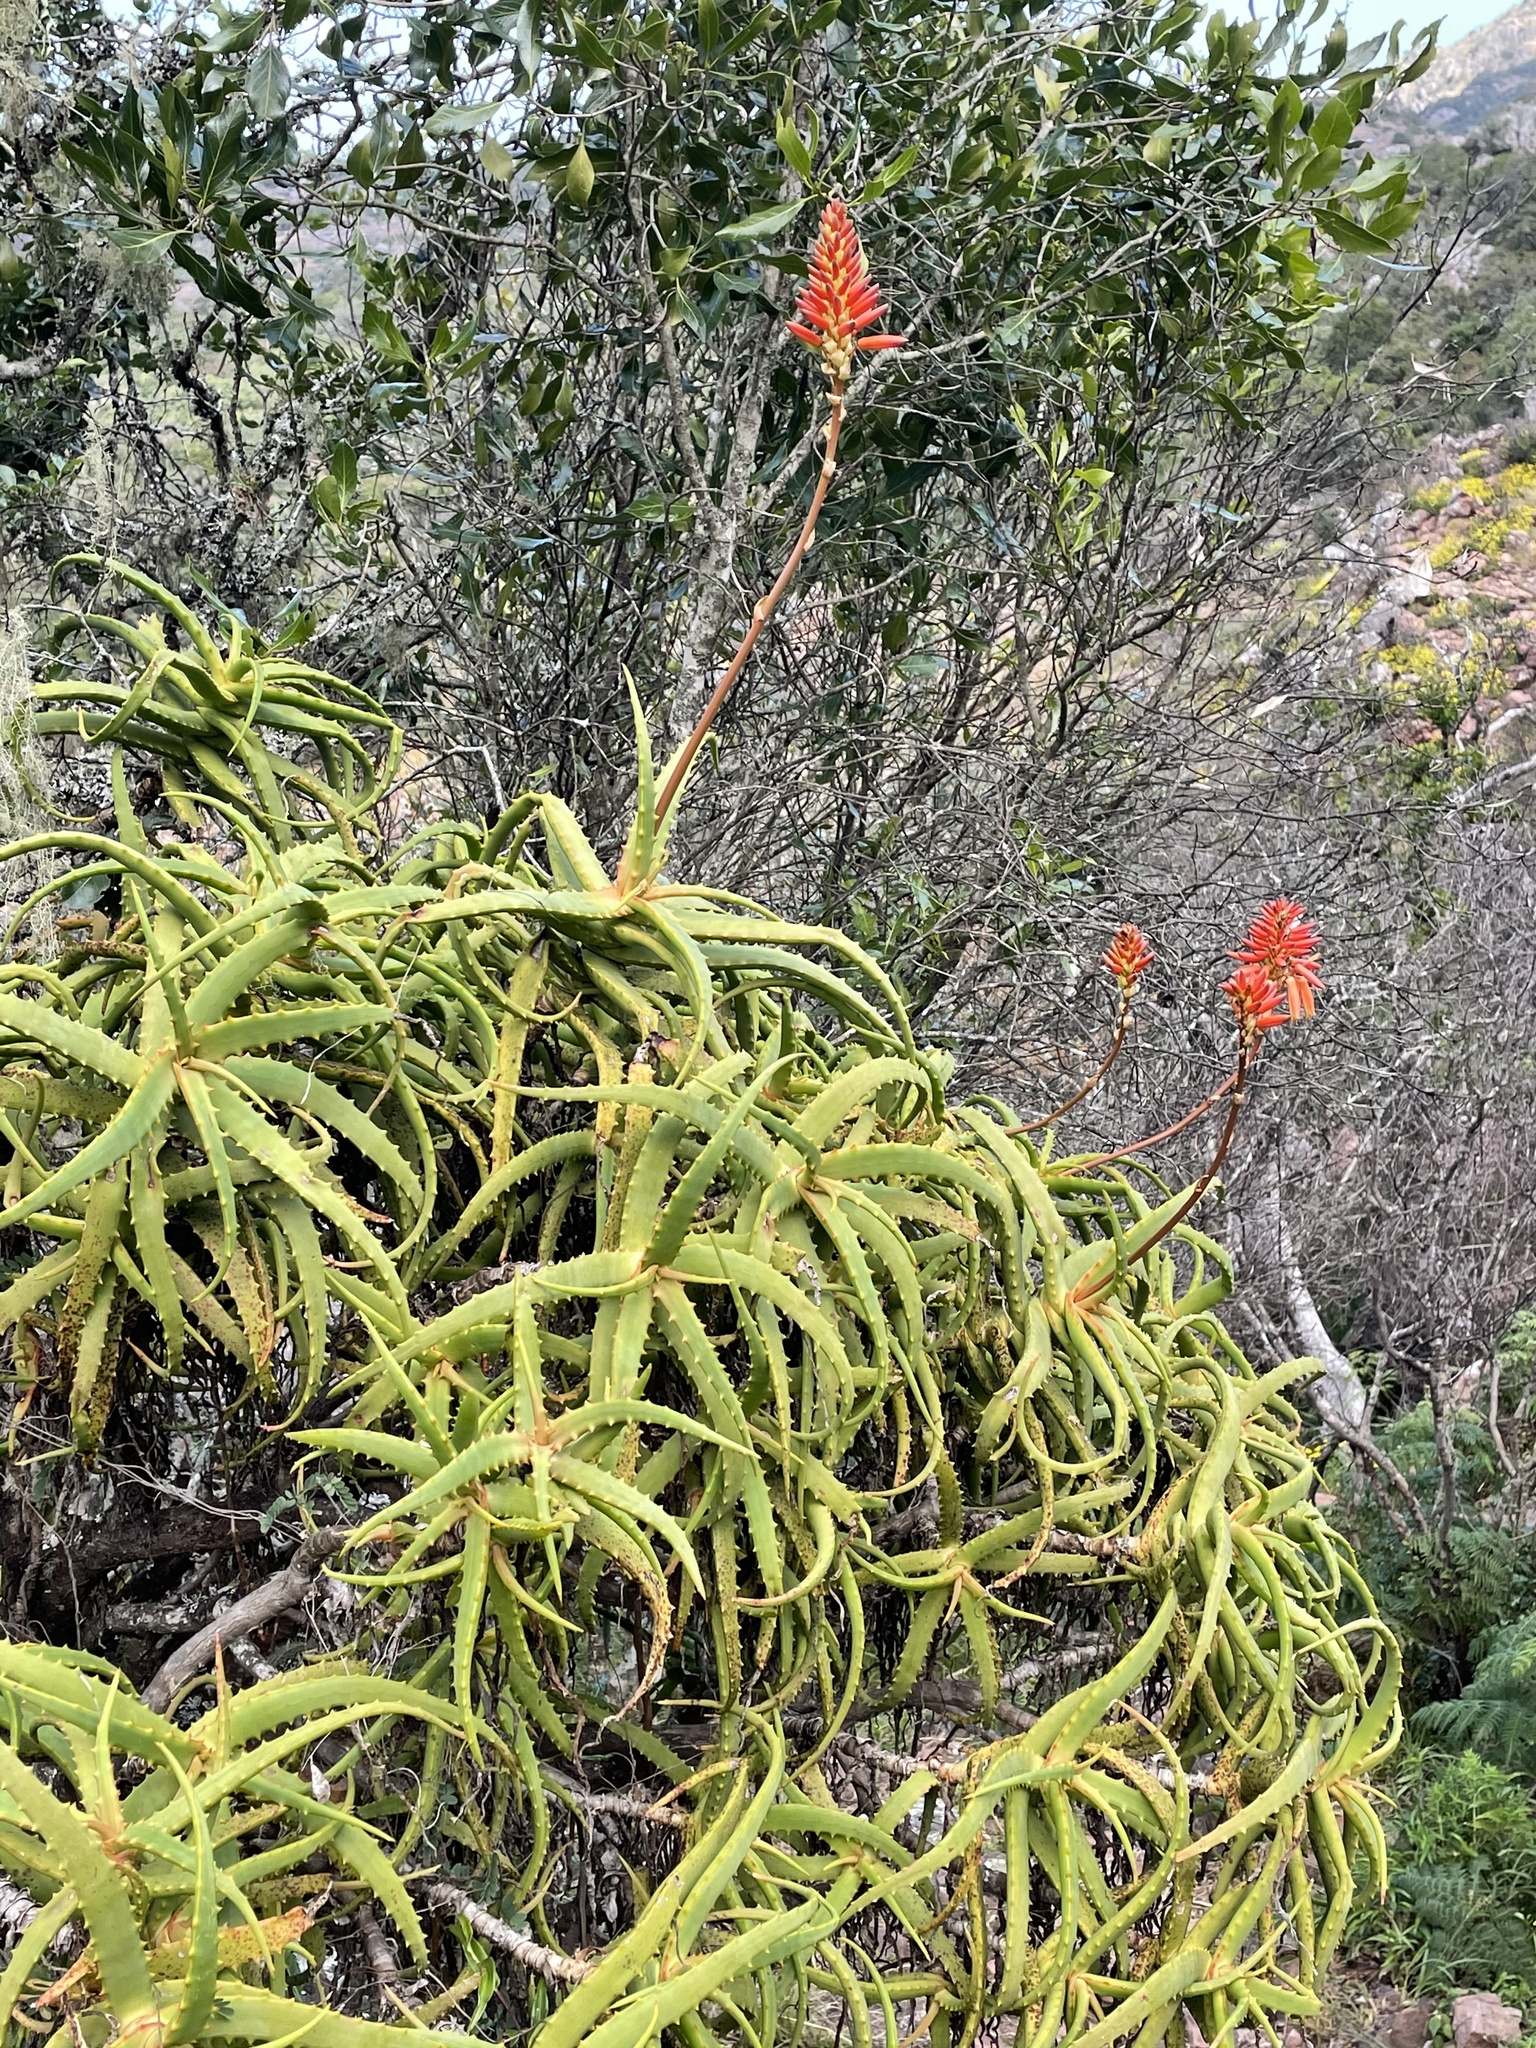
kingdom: Plantae
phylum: Tracheophyta
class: Liliopsida
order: Asparagales
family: Asphodelaceae
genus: Aloe
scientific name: Aloe arborescens
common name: Candelabra aloe
